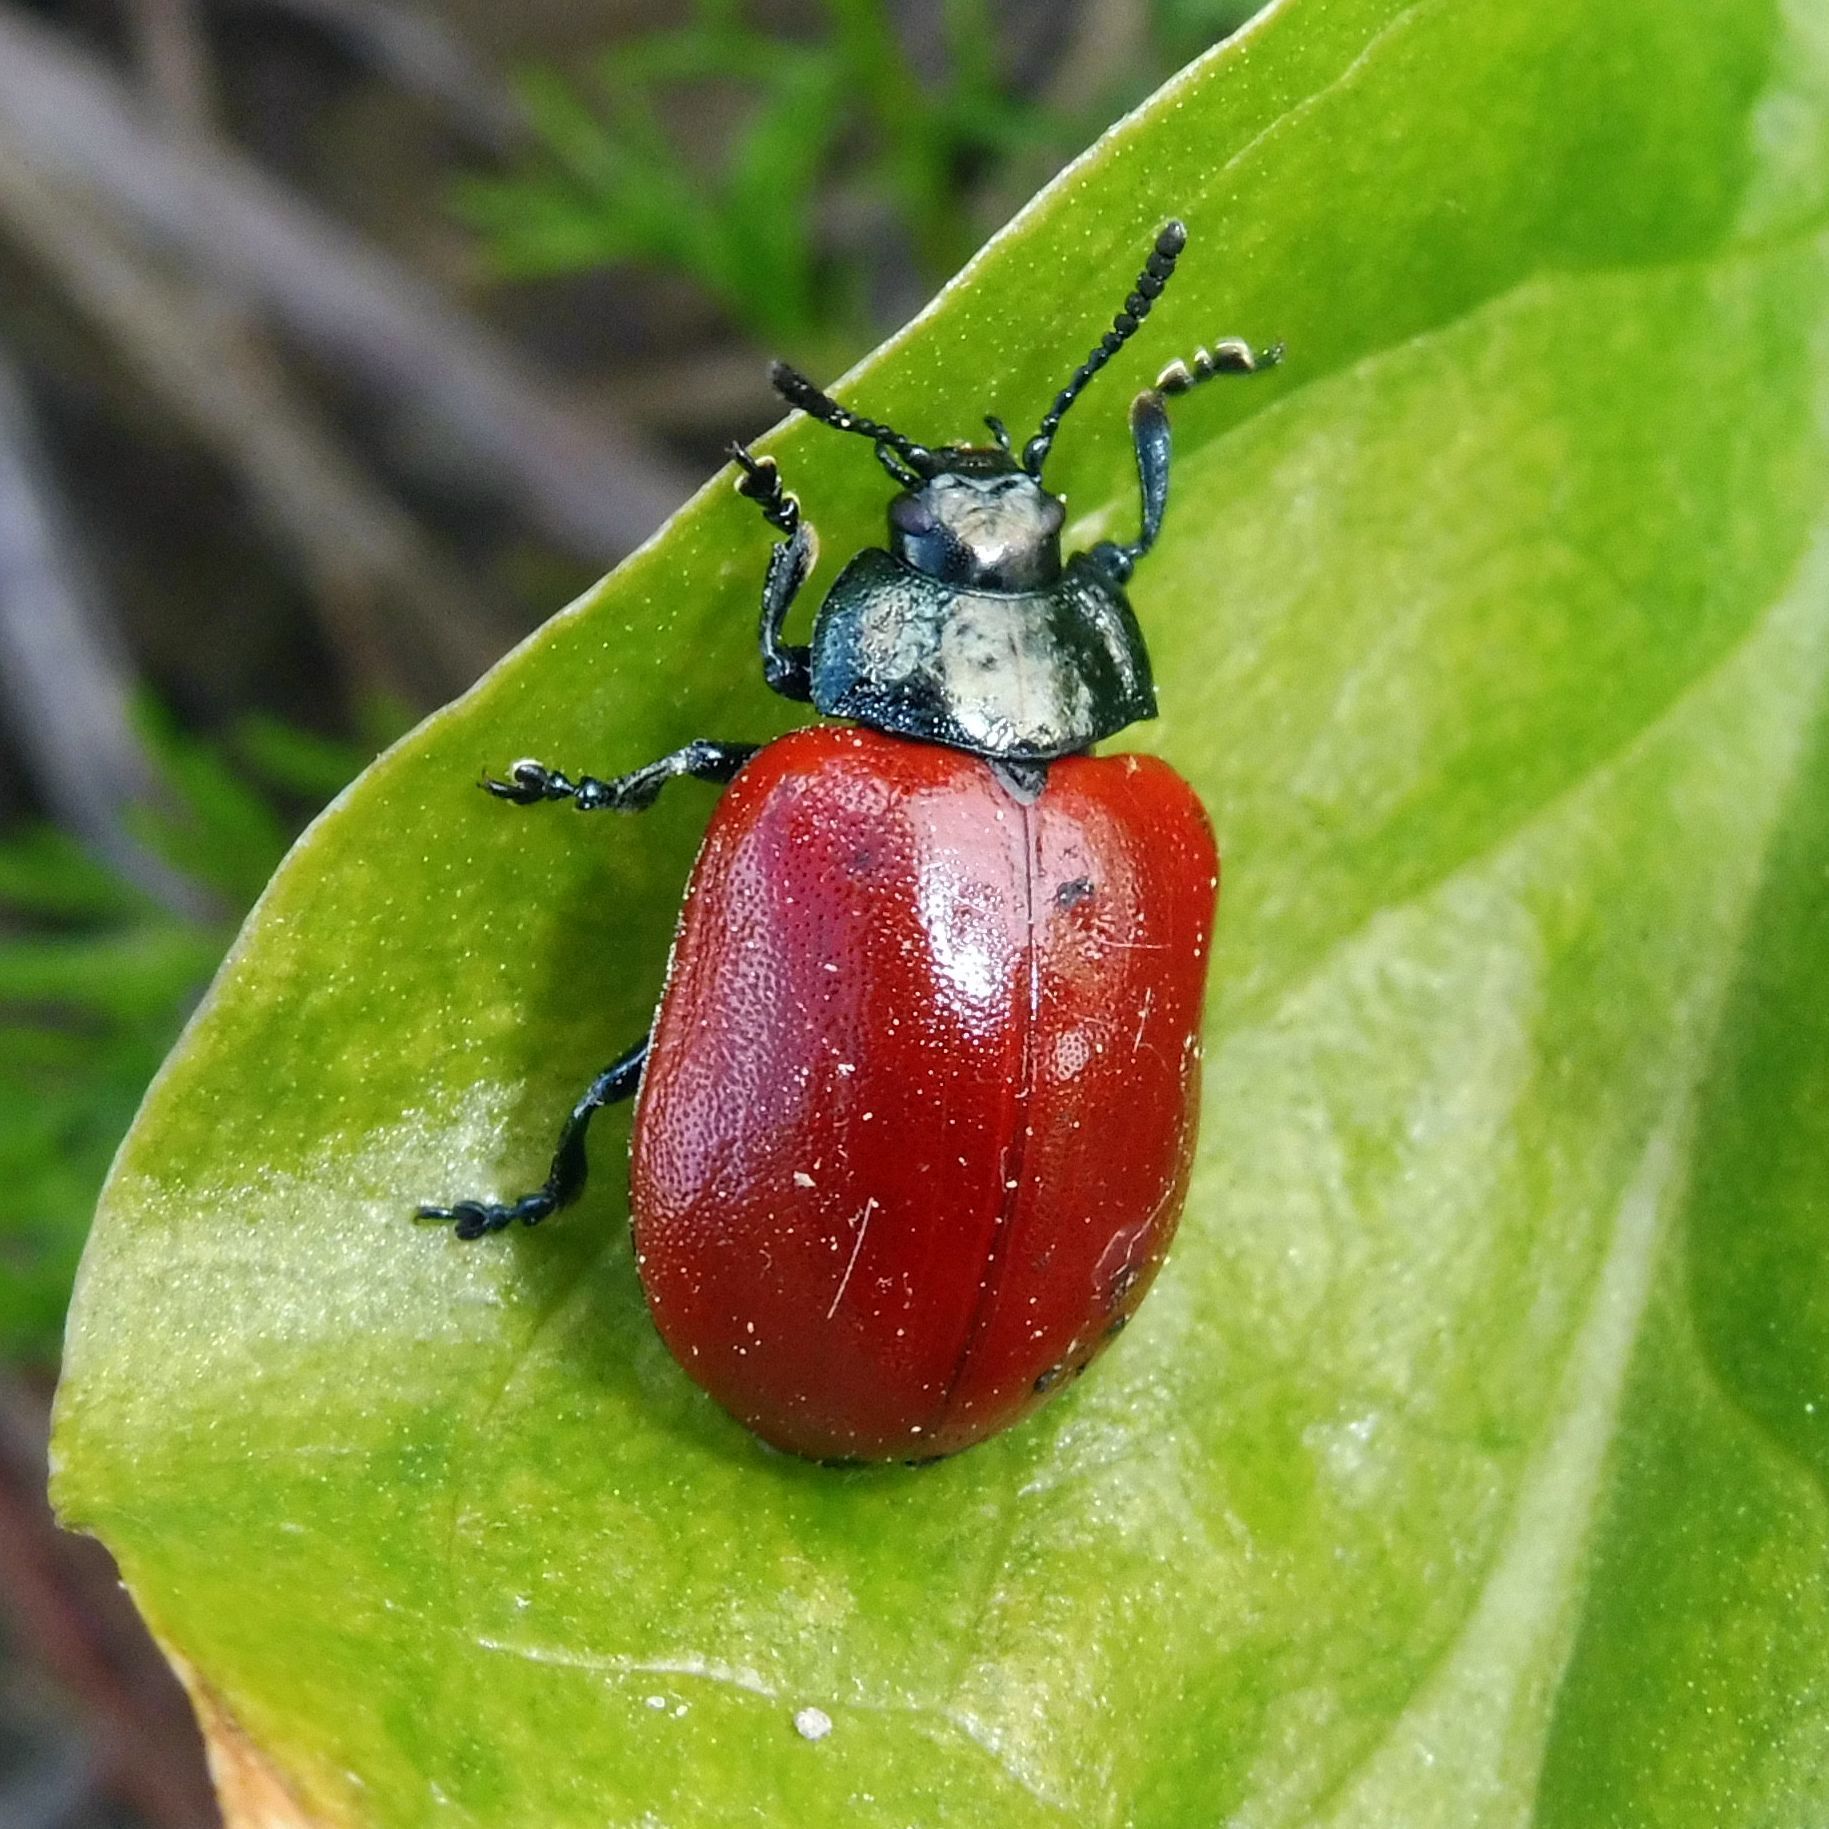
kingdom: Animalia
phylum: Arthropoda
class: Insecta
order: Coleoptera
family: Chrysomelidae
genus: Chrysomela
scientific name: Chrysomela populi
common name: Red poplar leaf beetle
